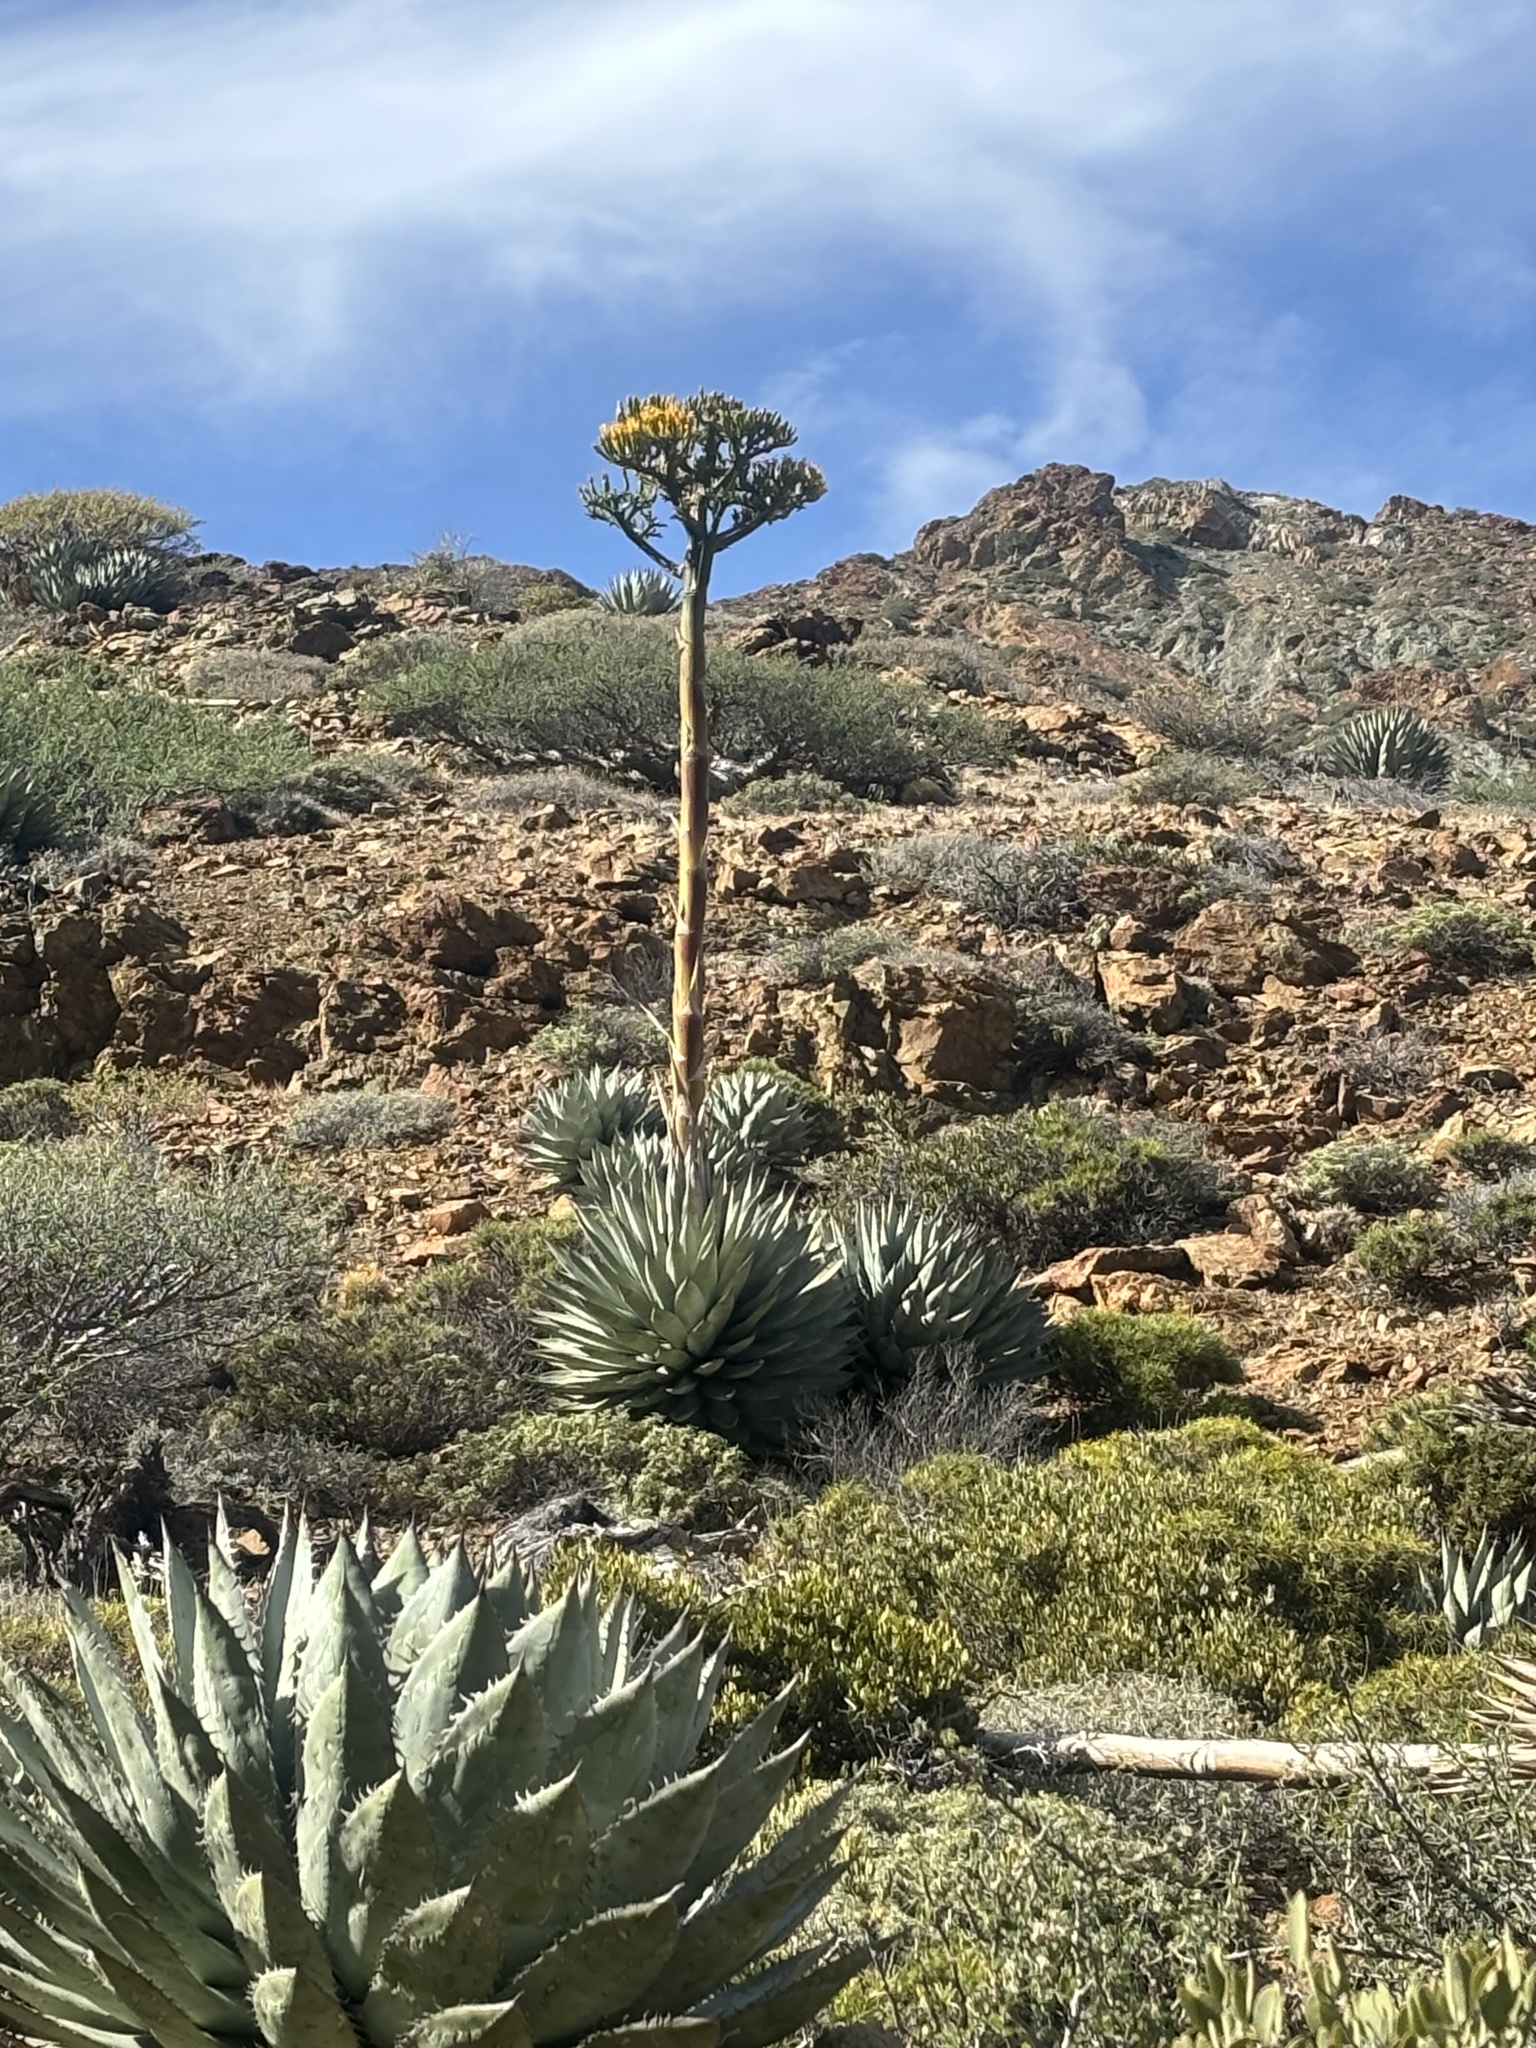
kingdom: Plantae
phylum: Tracheophyta
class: Liliopsida
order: Asparagales
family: Asparagaceae
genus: Agave
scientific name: Agave sebastiana
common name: Cedros agave
